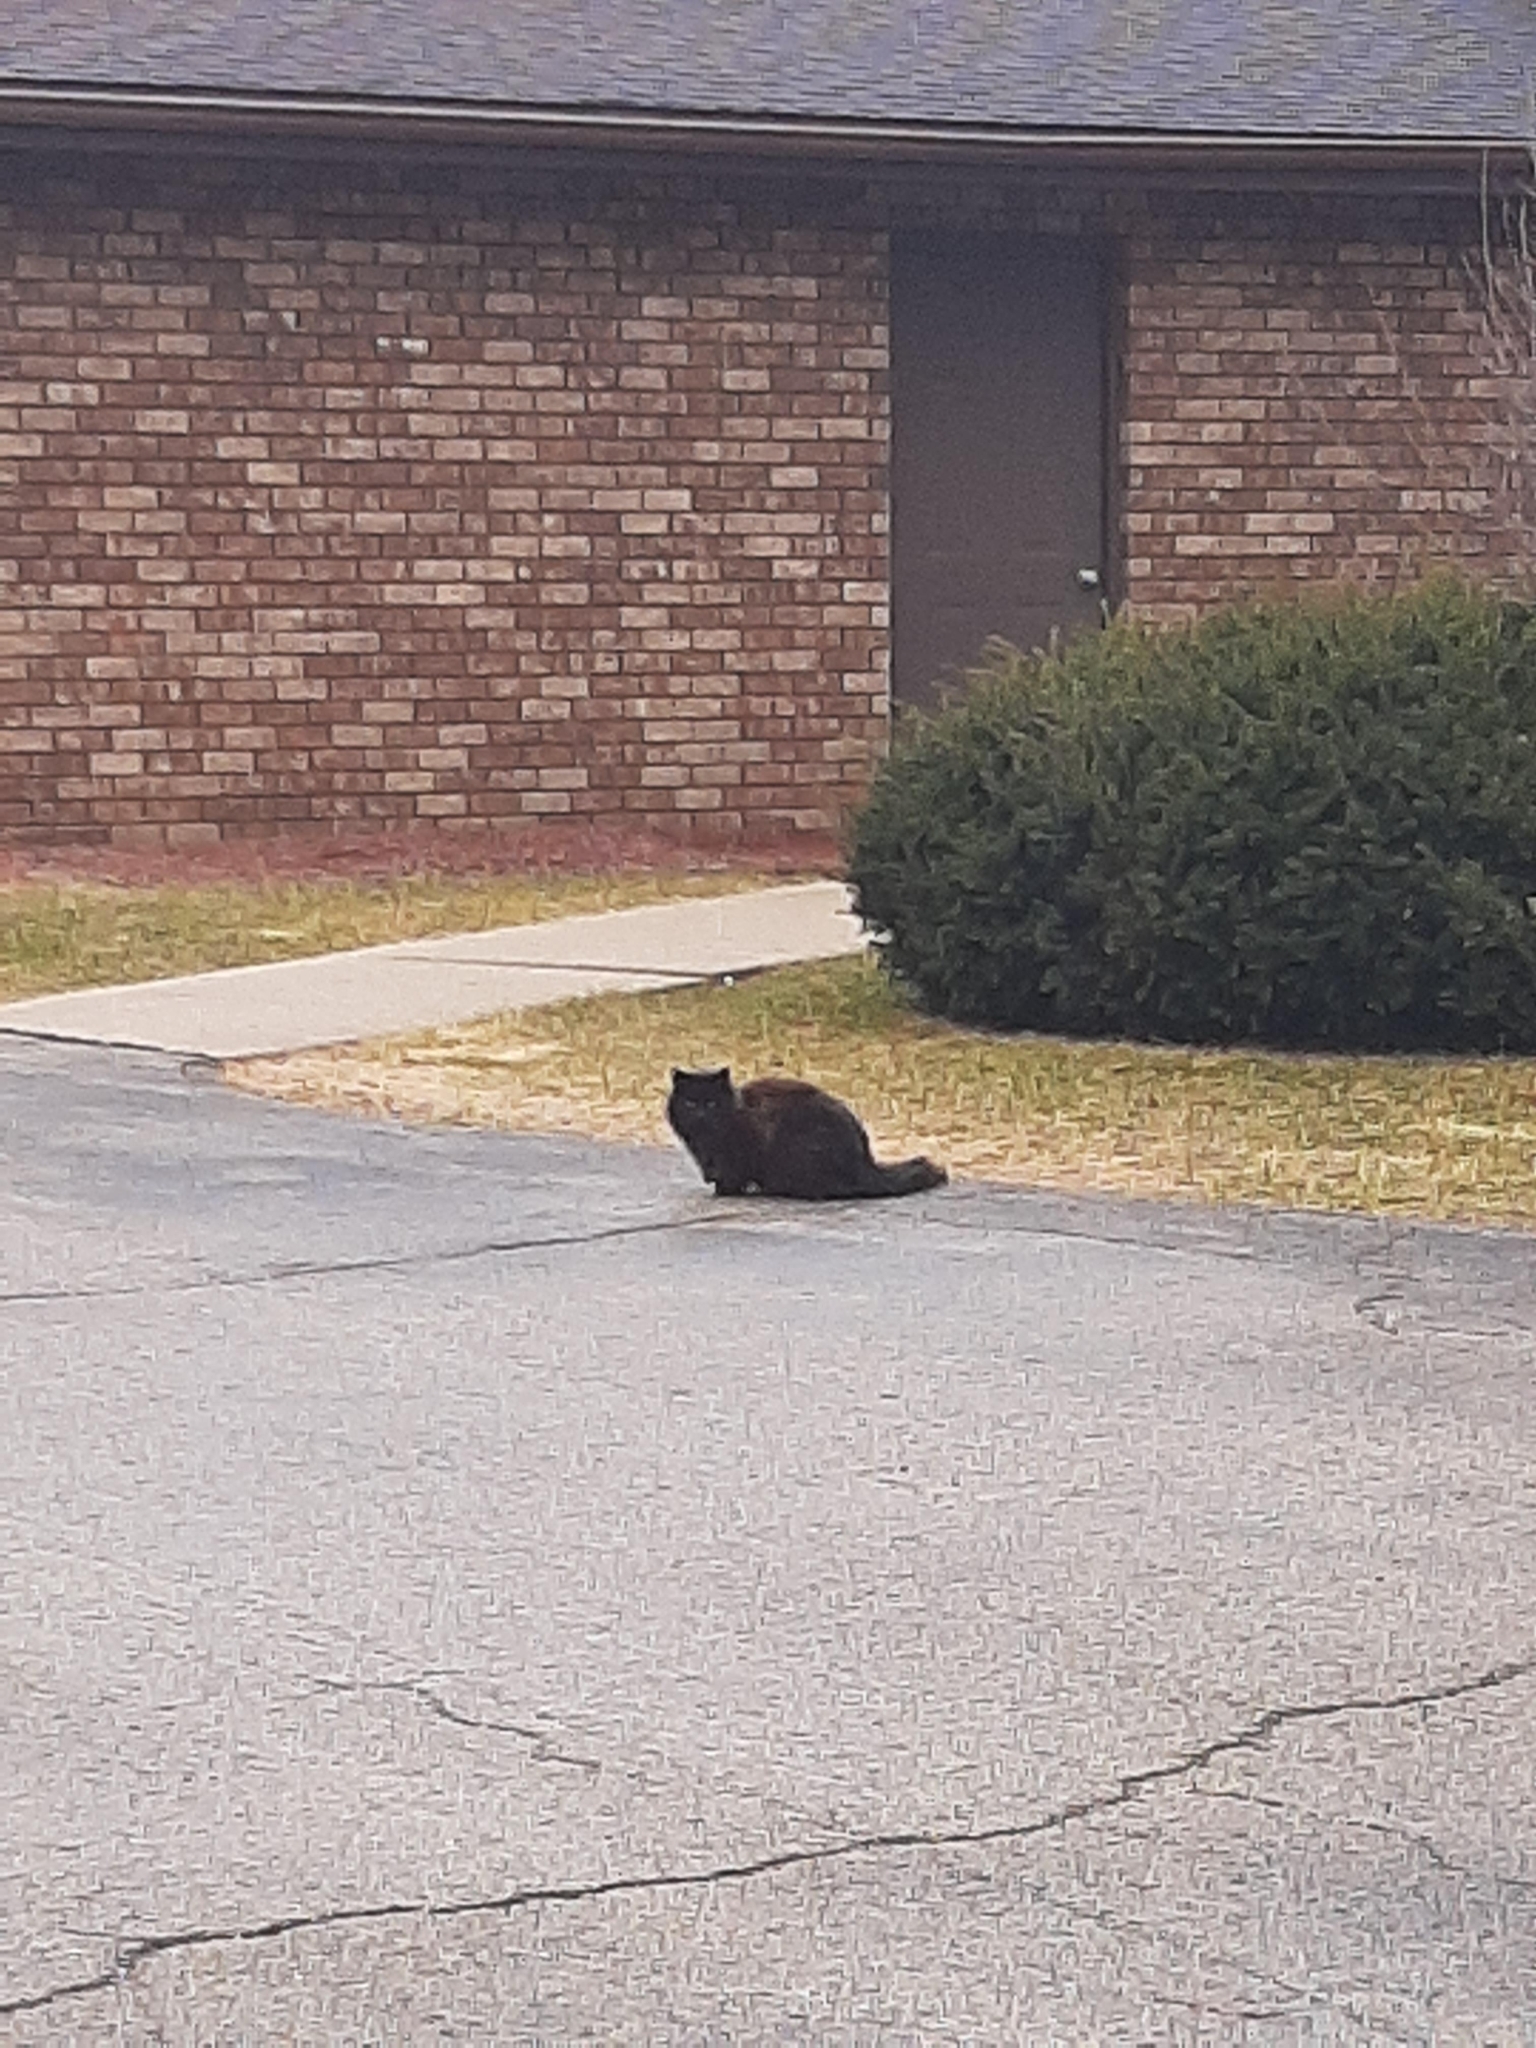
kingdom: Animalia
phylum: Chordata
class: Mammalia
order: Carnivora
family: Felidae
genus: Felis
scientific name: Felis catus
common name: Domestic cat
